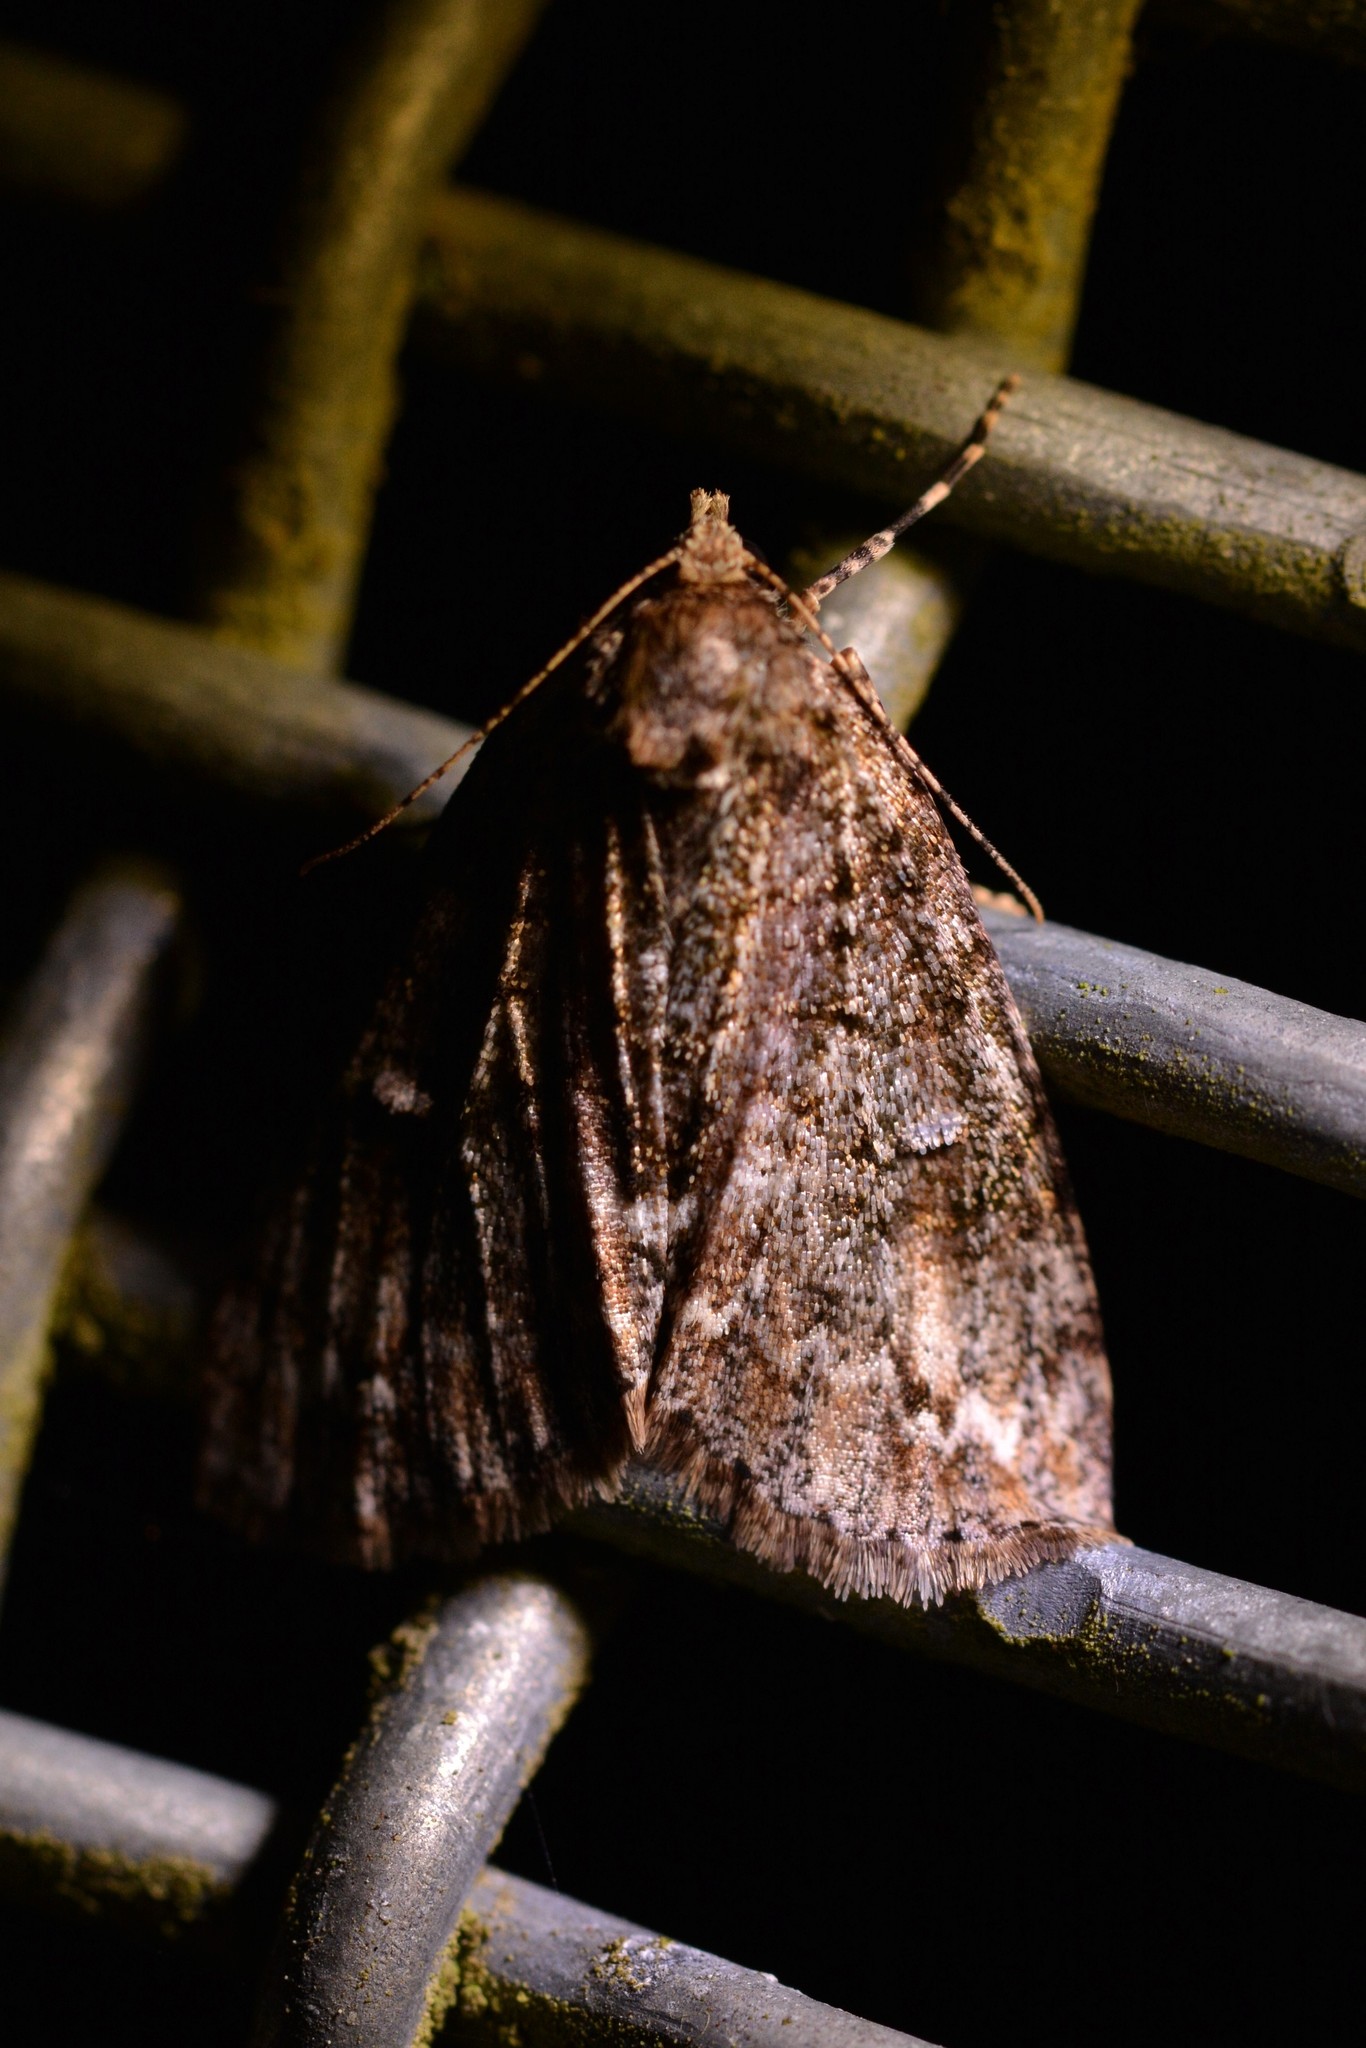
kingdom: Animalia
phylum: Arthropoda
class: Insecta
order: Lepidoptera
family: Geometridae
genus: Pseudocoremia
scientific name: Pseudocoremia suavis
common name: Common forest looper
